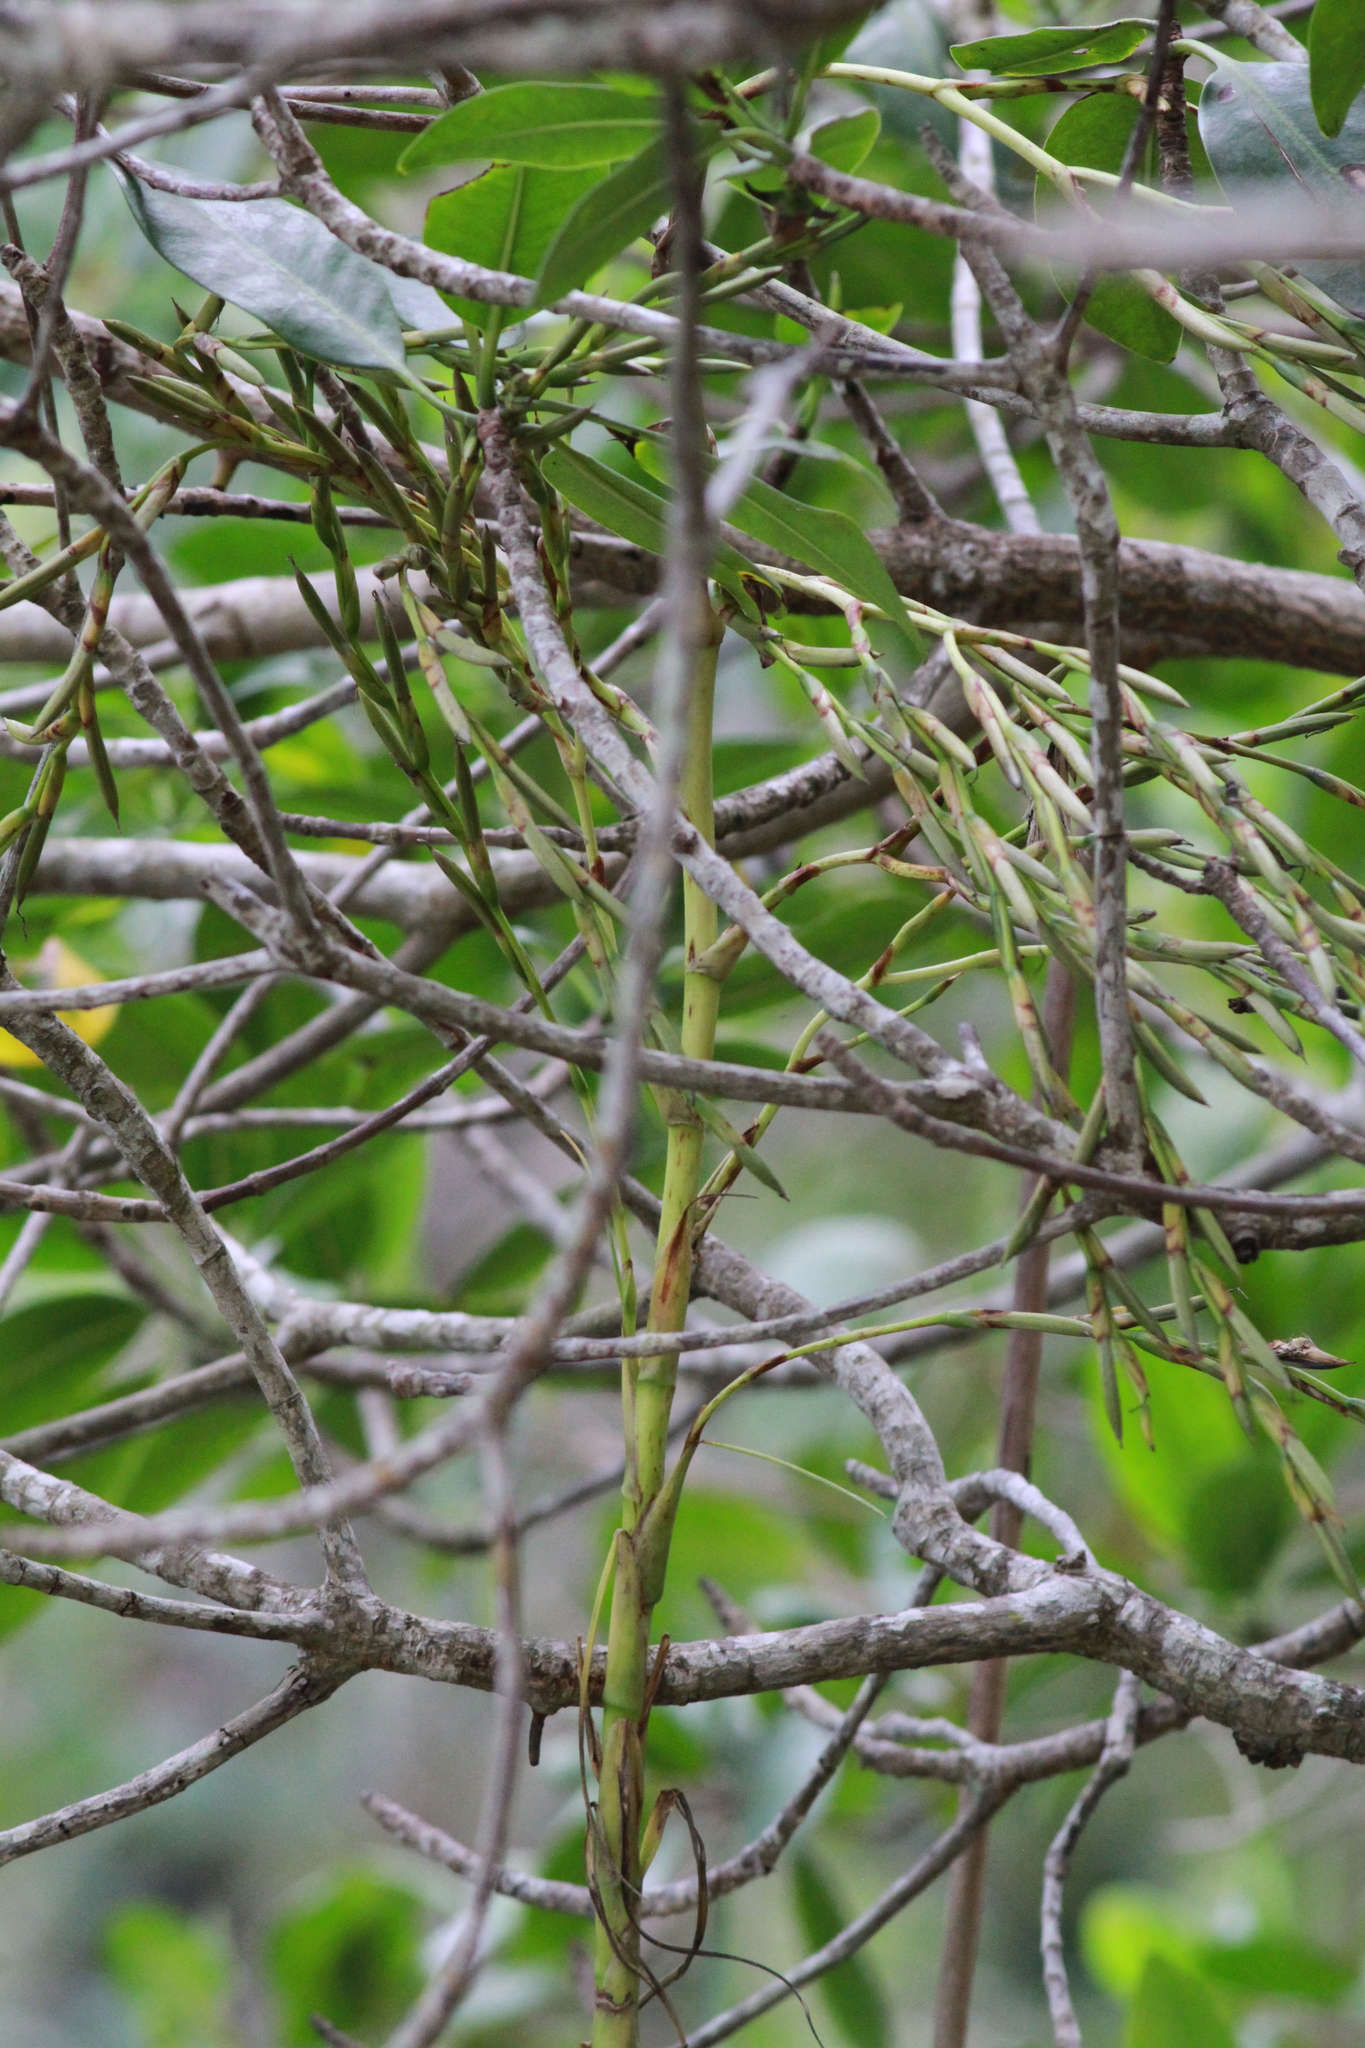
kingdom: Plantae
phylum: Tracheophyta
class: Liliopsida
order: Poales
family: Bromeliaceae
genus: Tillandsia
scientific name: Tillandsia utriculata
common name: Wild pine
